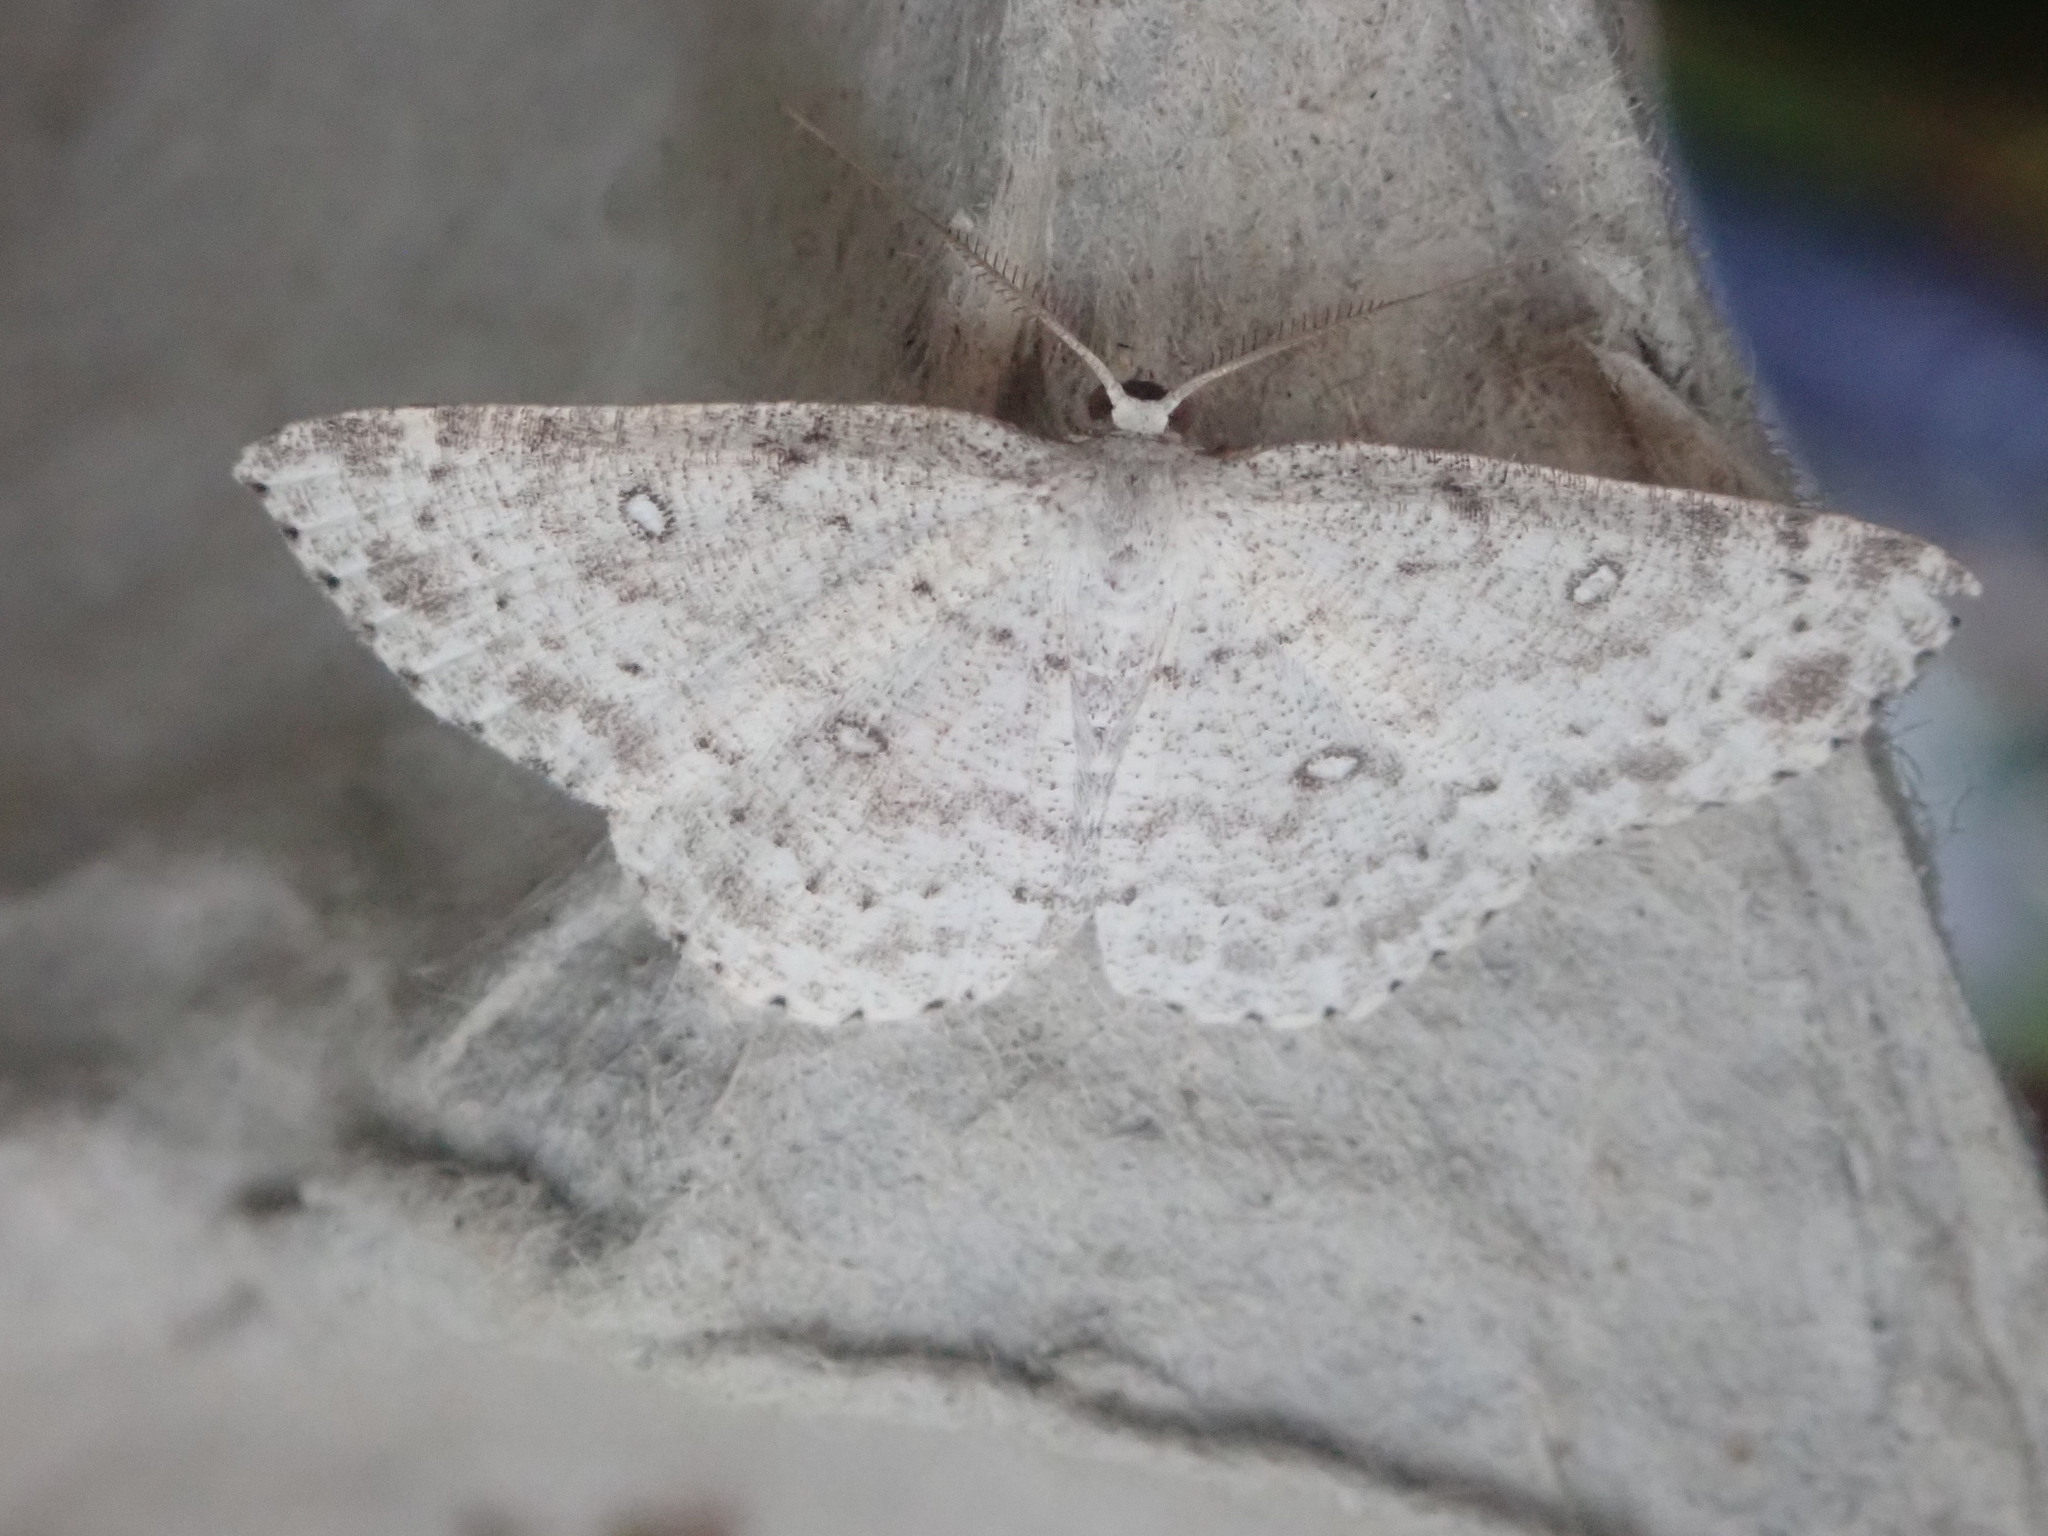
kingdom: Animalia
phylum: Arthropoda
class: Insecta
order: Lepidoptera
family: Geometridae
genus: Cyclophora
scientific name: Cyclophora pendulinaria
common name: Sweet fern geometer
